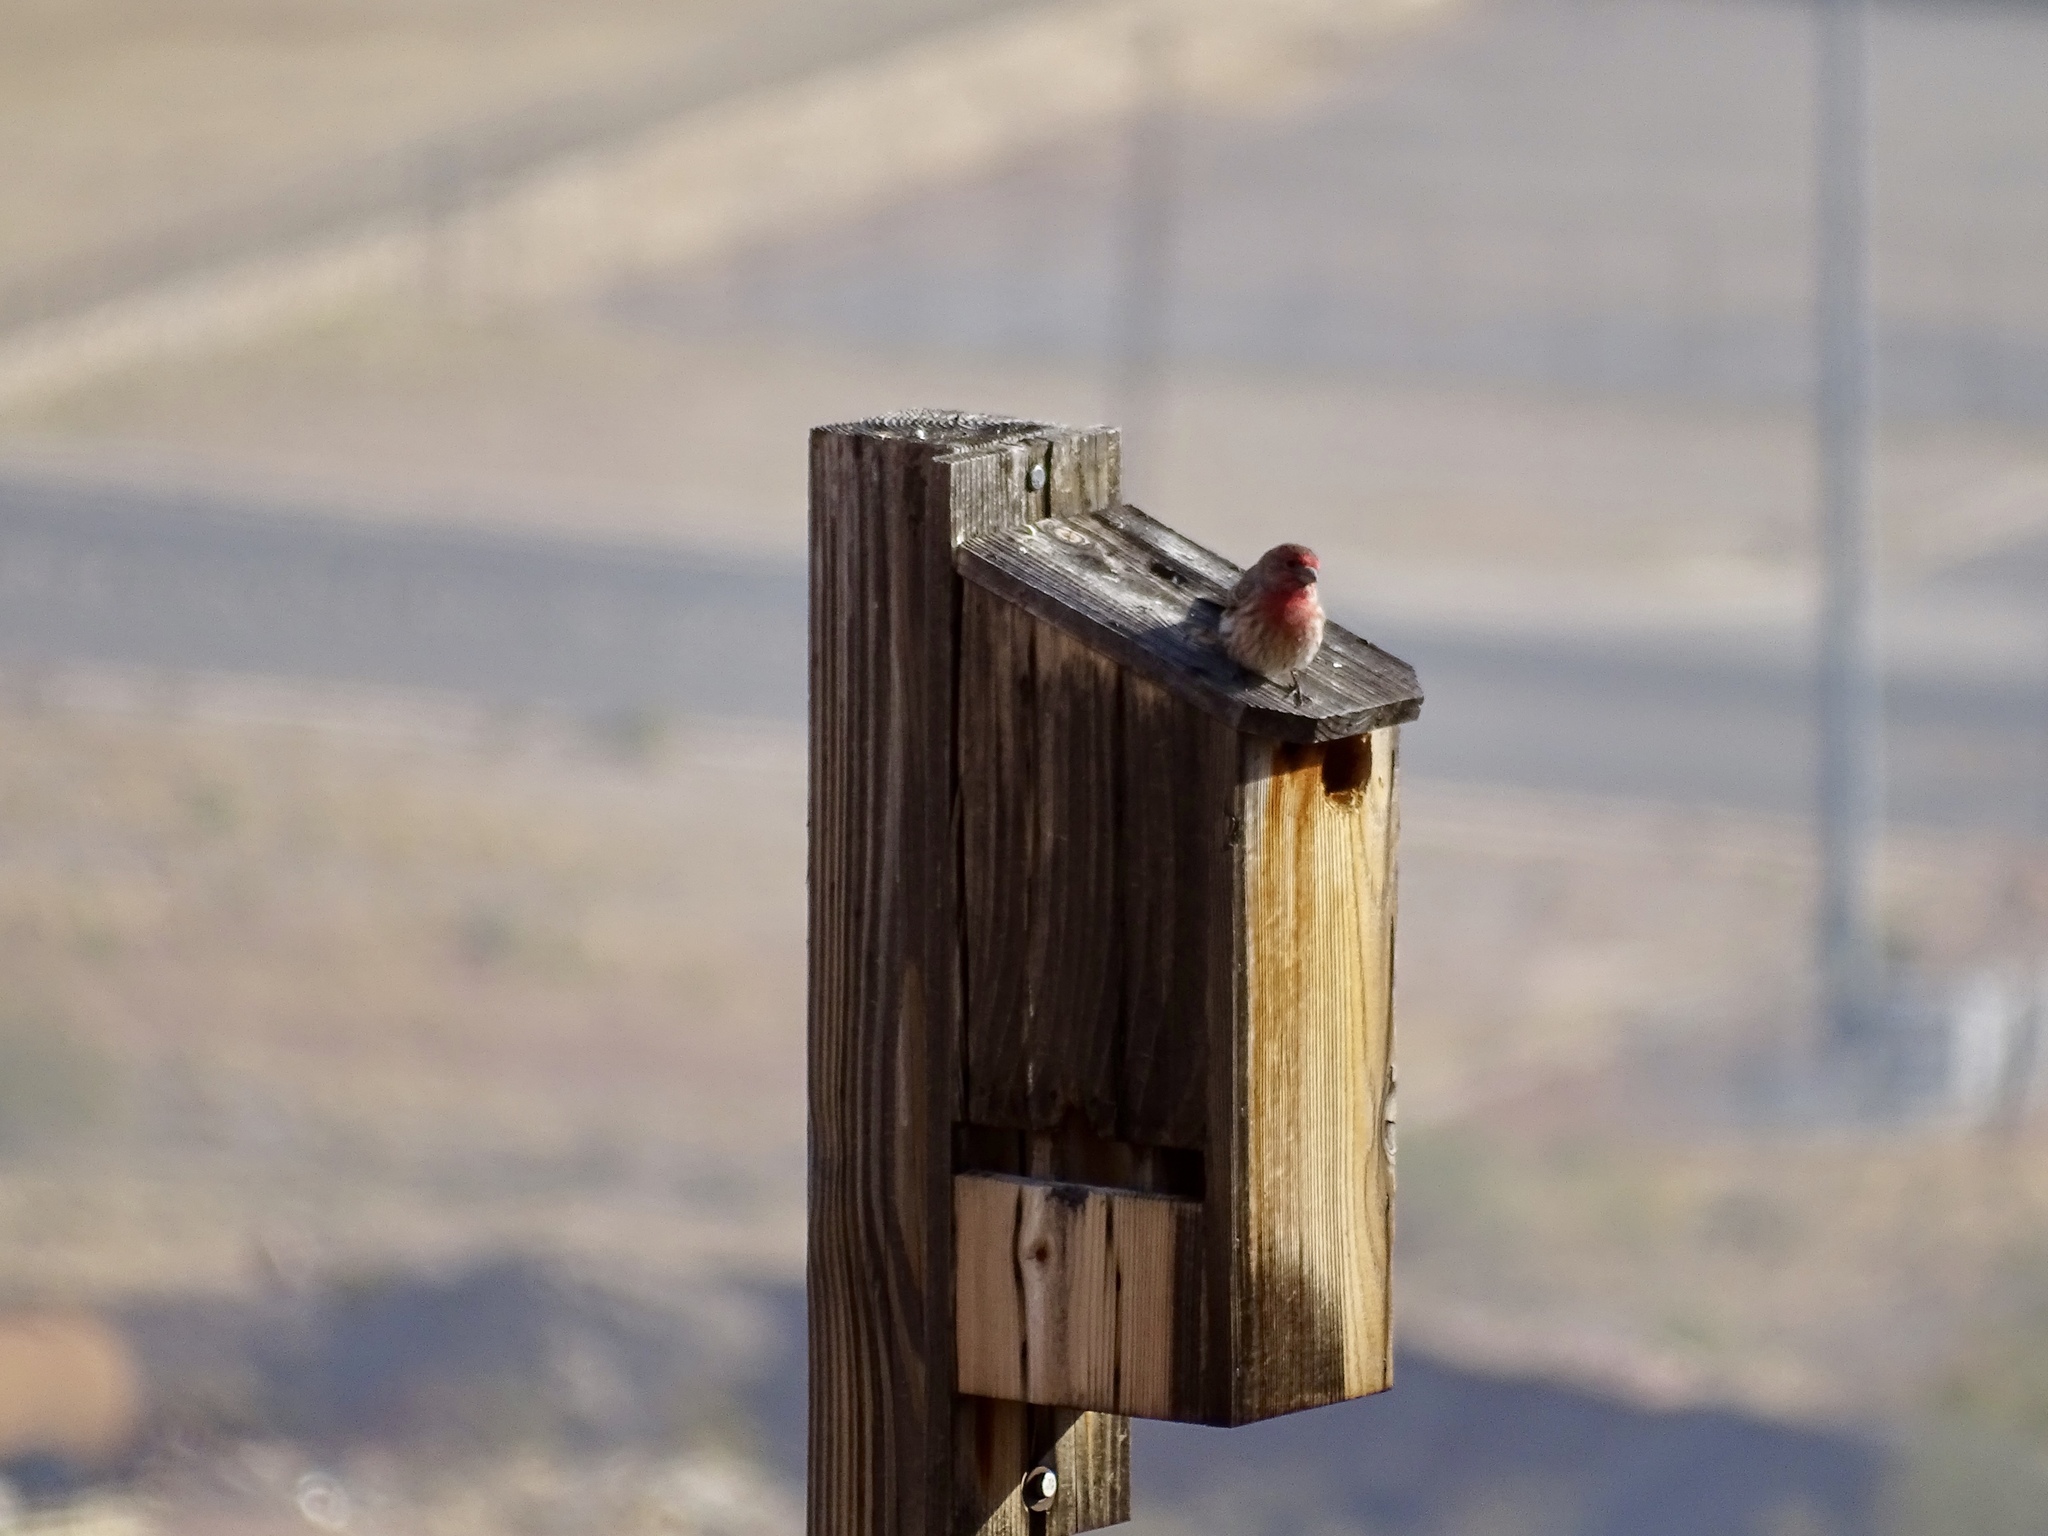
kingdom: Animalia
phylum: Chordata
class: Aves
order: Passeriformes
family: Fringillidae
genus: Haemorhous
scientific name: Haemorhous mexicanus
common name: House finch
